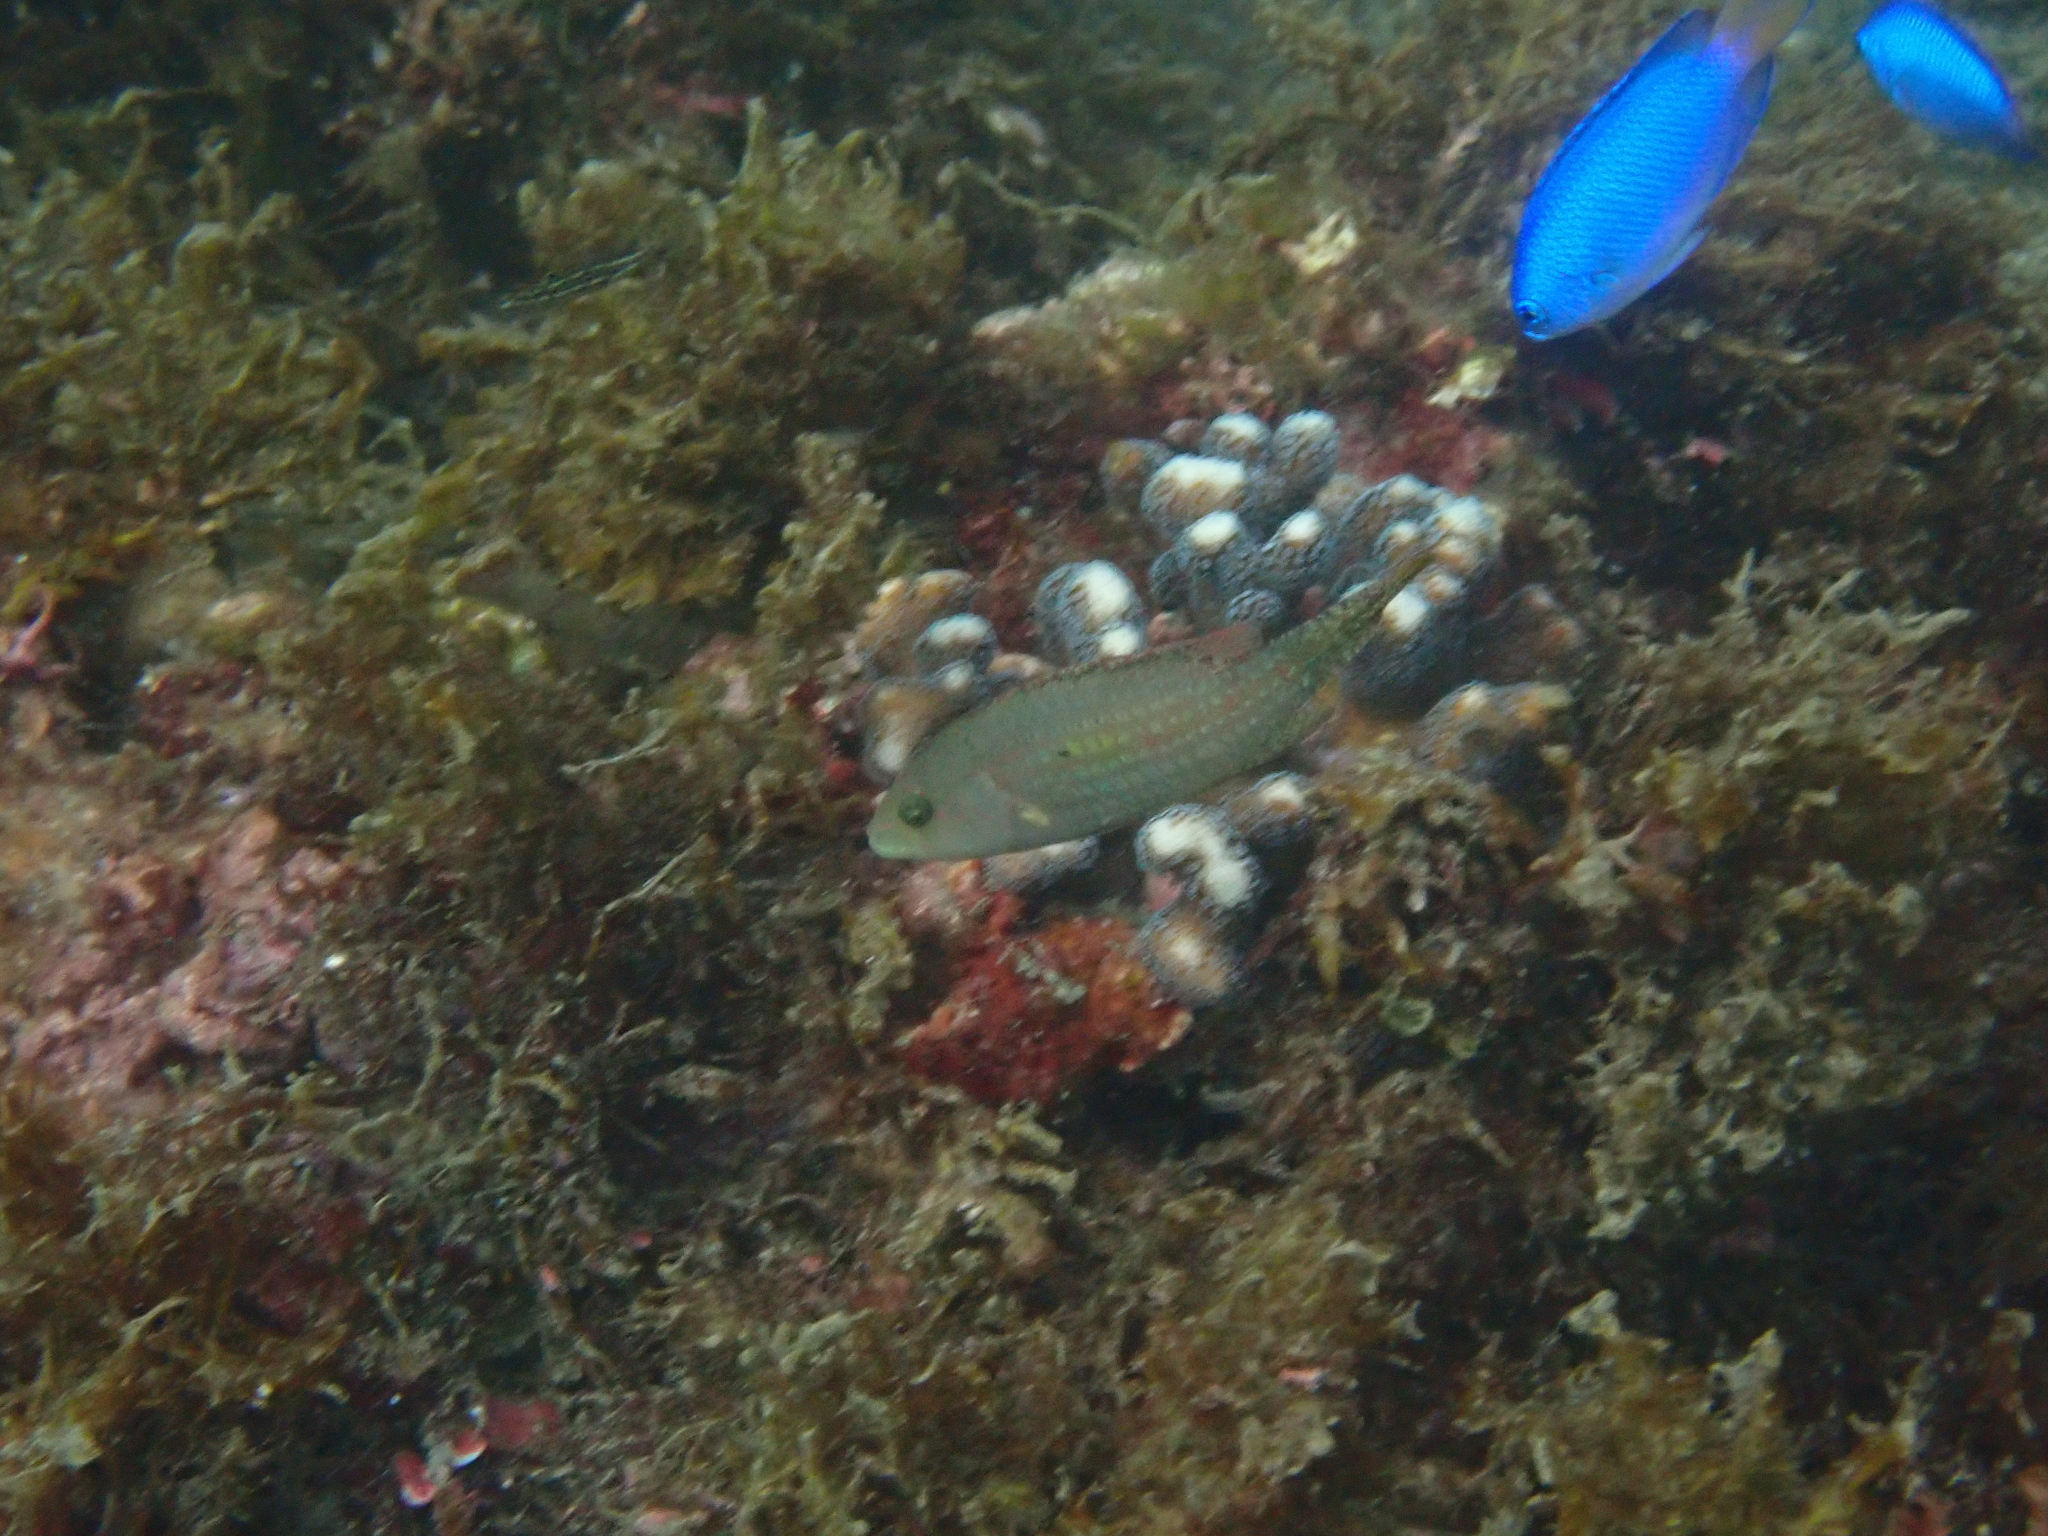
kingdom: Animalia
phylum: Chordata
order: Perciformes
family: Labridae
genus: Oxycheilinus
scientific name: Oxycheilinus bimaculatus
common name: Comettailed wrasse
